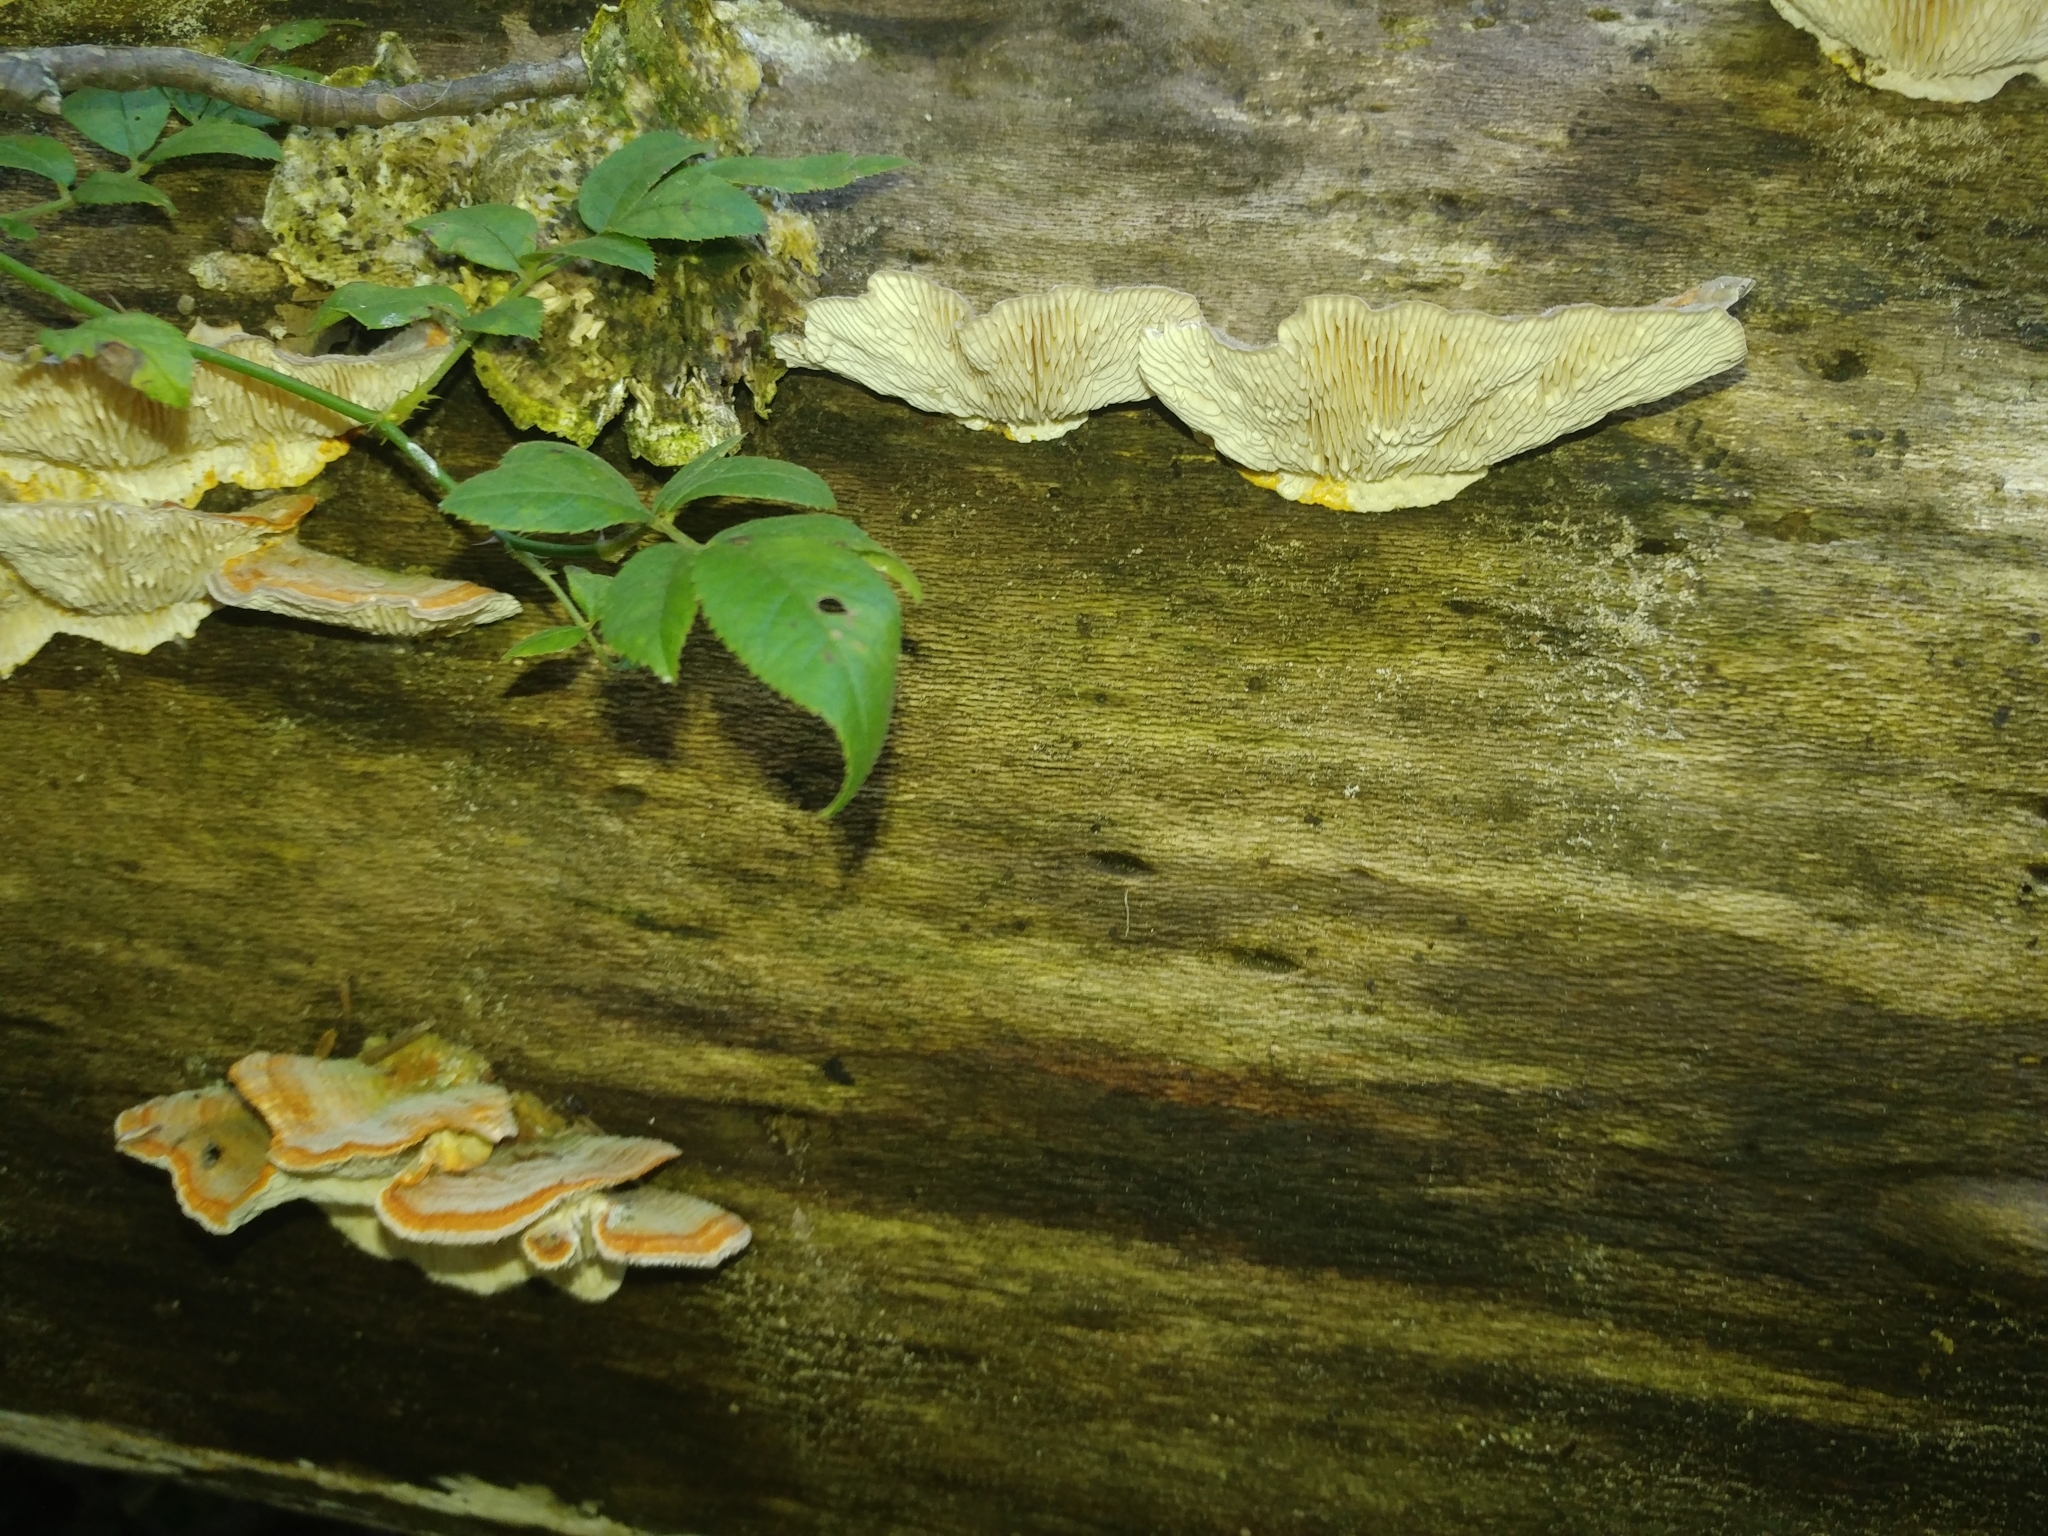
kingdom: Fungi
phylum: Basidiomycota
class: Agaricomycetes
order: Polyporales
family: Polyporaceae
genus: Lenzites
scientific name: Lenzites betulinus
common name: Birch mazegill
